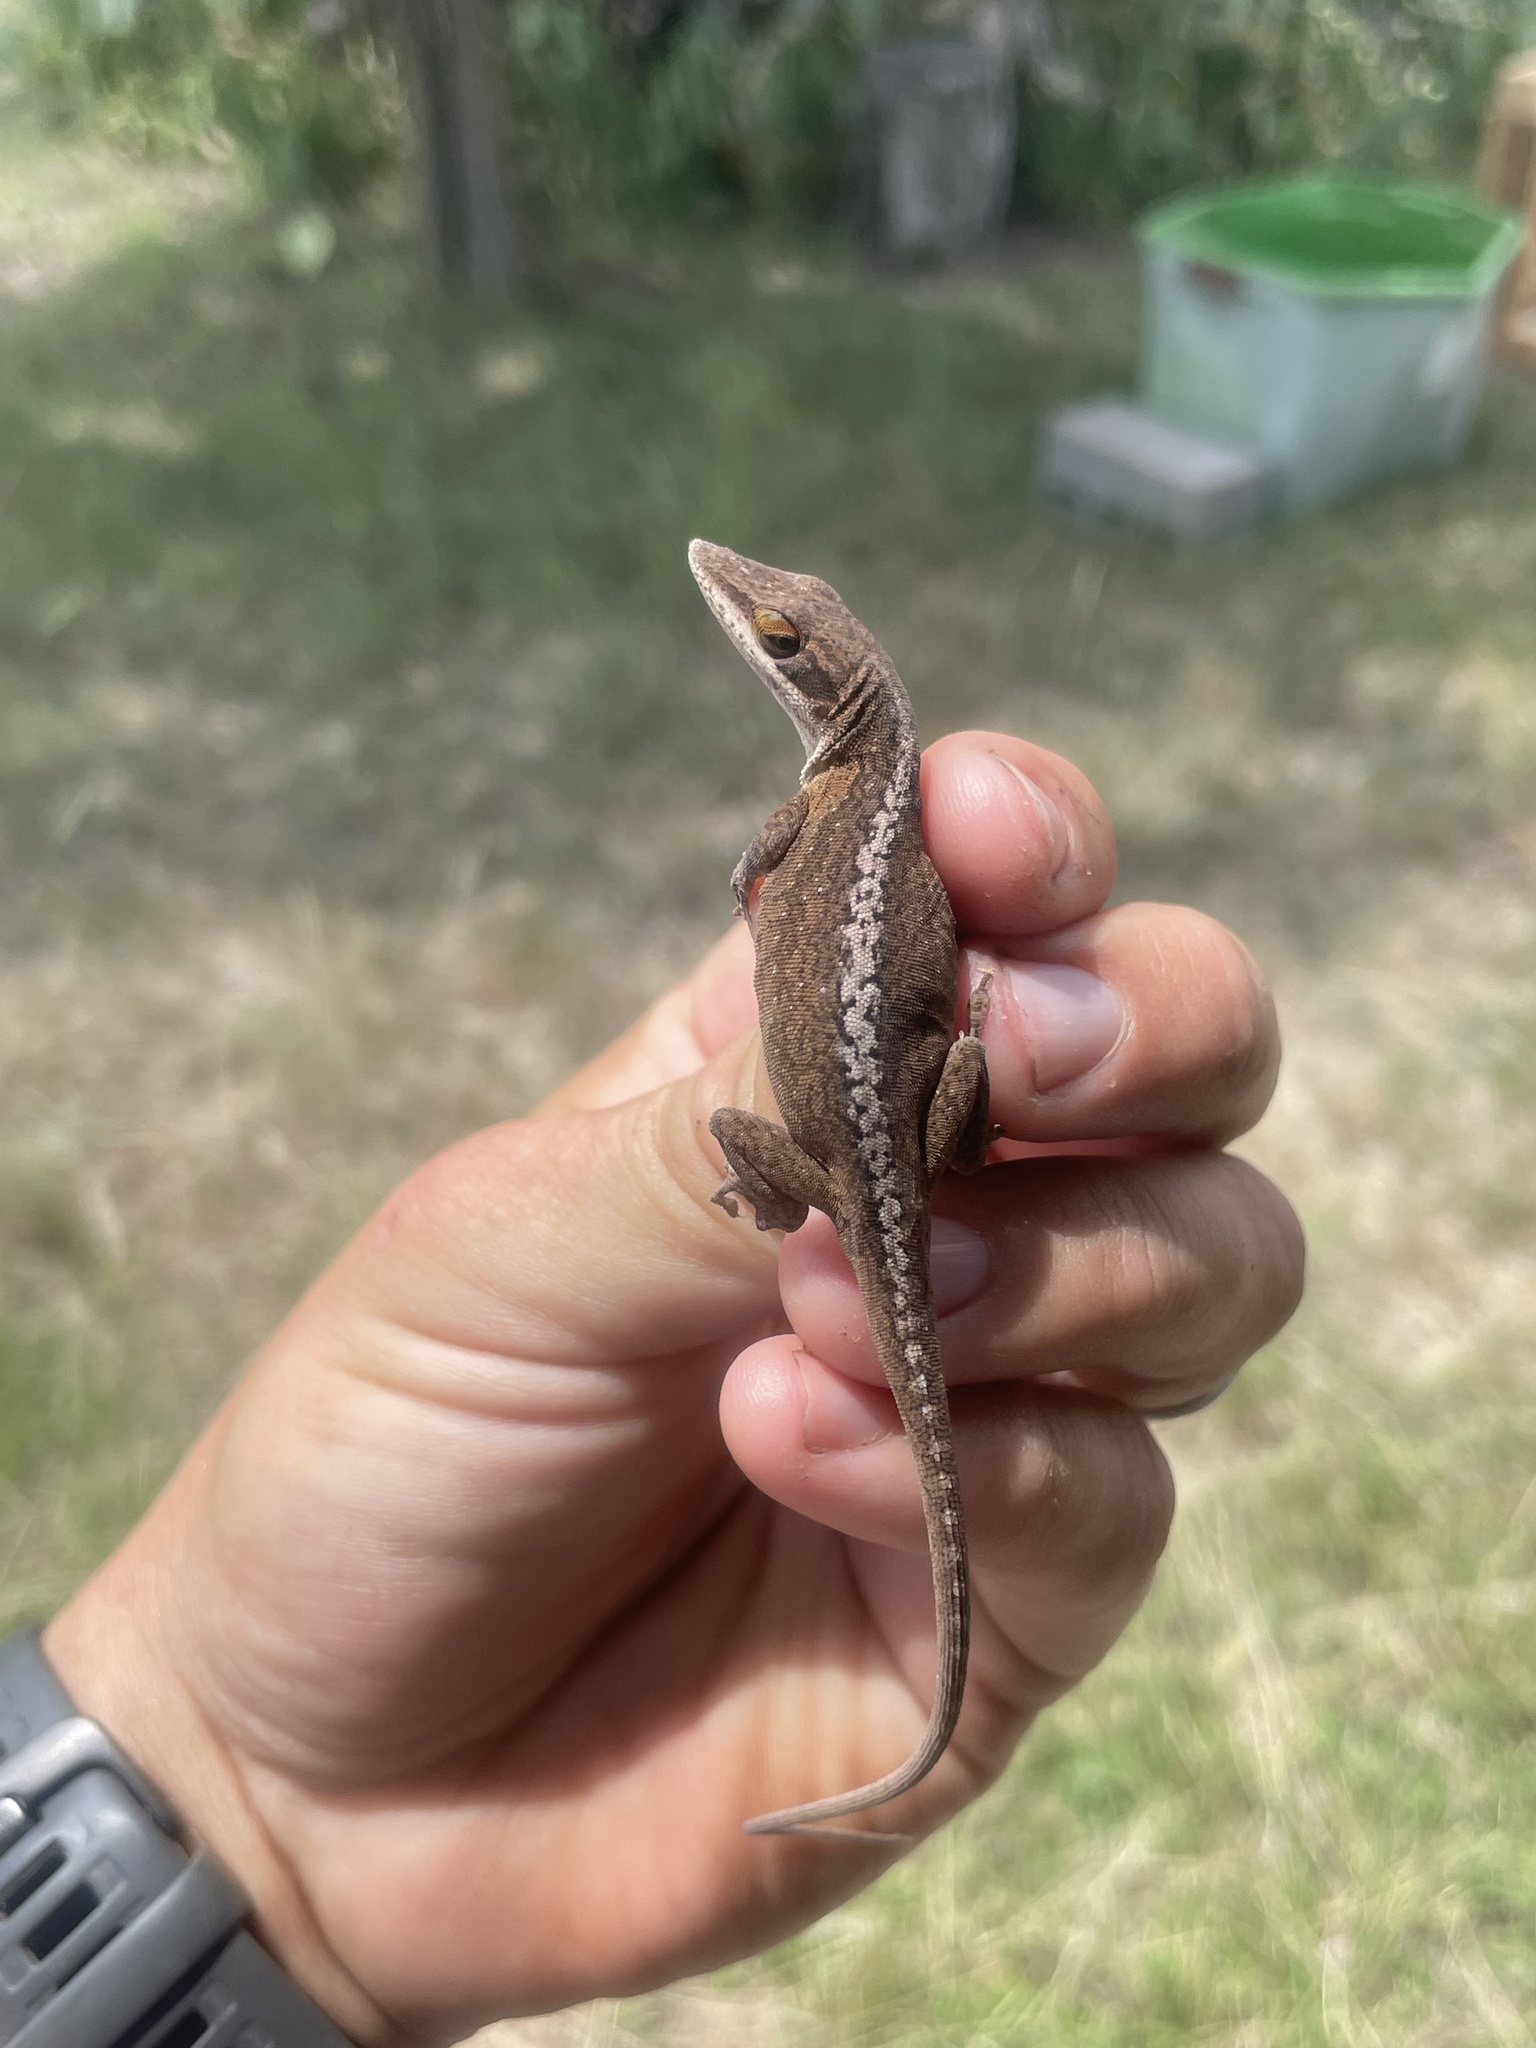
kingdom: Animalia
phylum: Chordata
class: Squamata
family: Dactyloidae
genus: Anolis
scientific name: Anolis carolinensis
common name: Green anole
